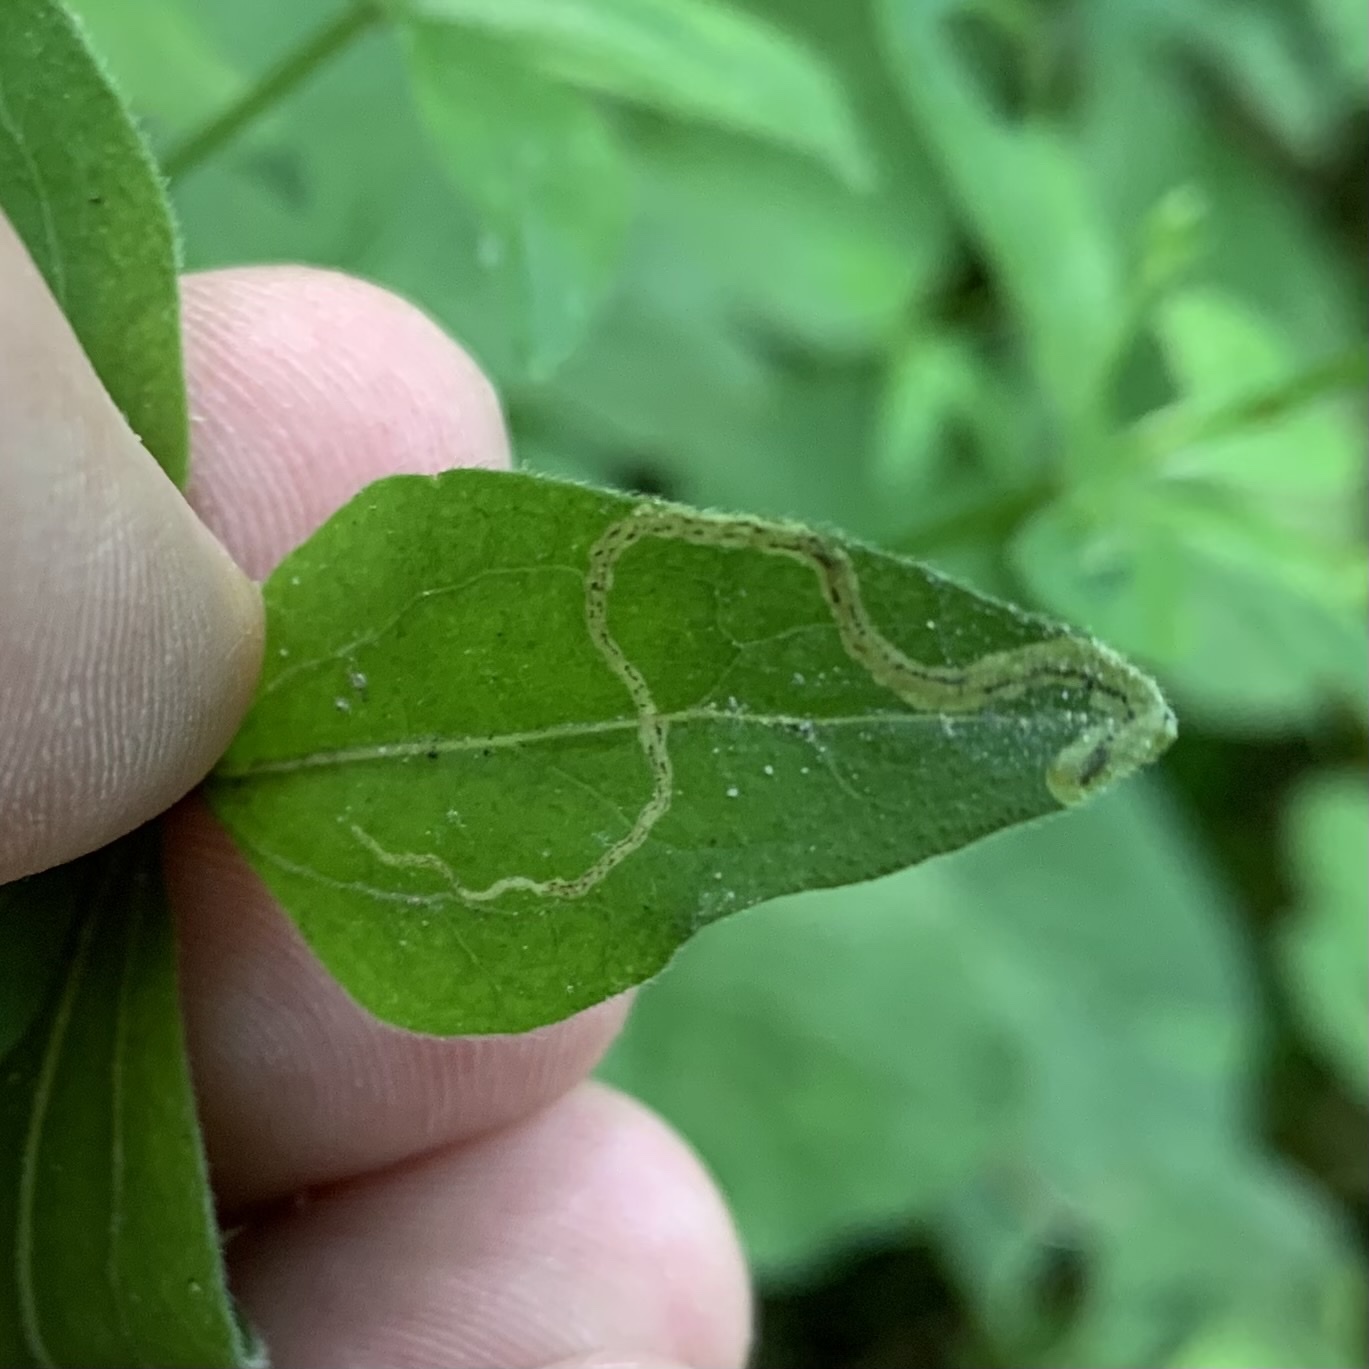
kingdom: Animalia
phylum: Arthropoda
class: Insecta
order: Diptera
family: Agromyzidae
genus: Liriomyza
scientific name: Liriomyza galiivora
